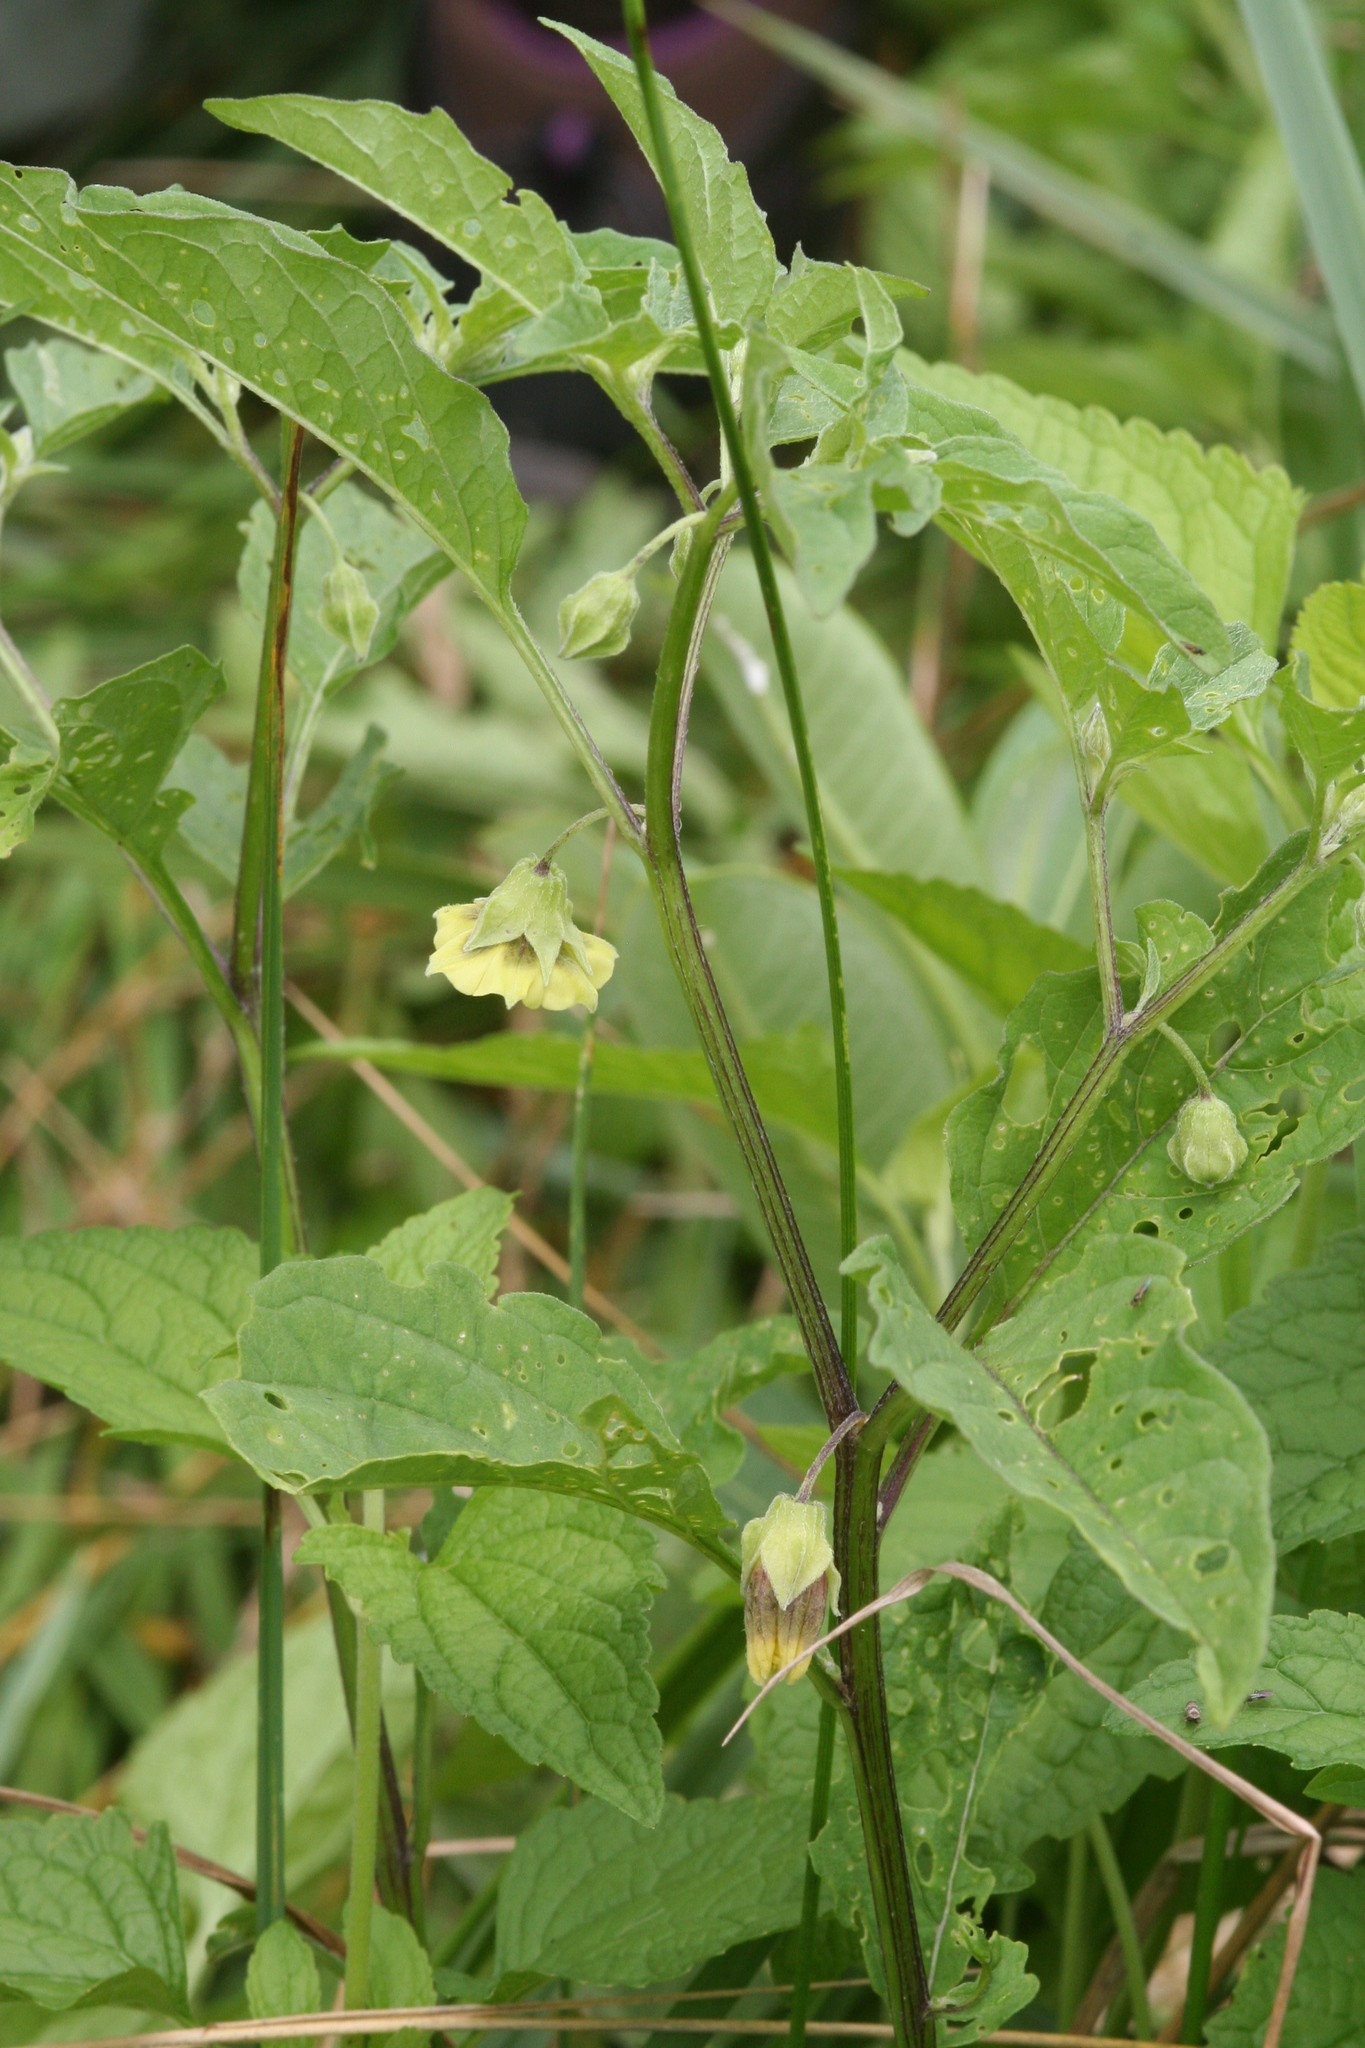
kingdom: Plantae
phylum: Tracheophyta
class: Magnoliopsida
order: Solanales
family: Solanaceae
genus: Physalis
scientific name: Physalis longifolia
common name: Common ground-cherry
